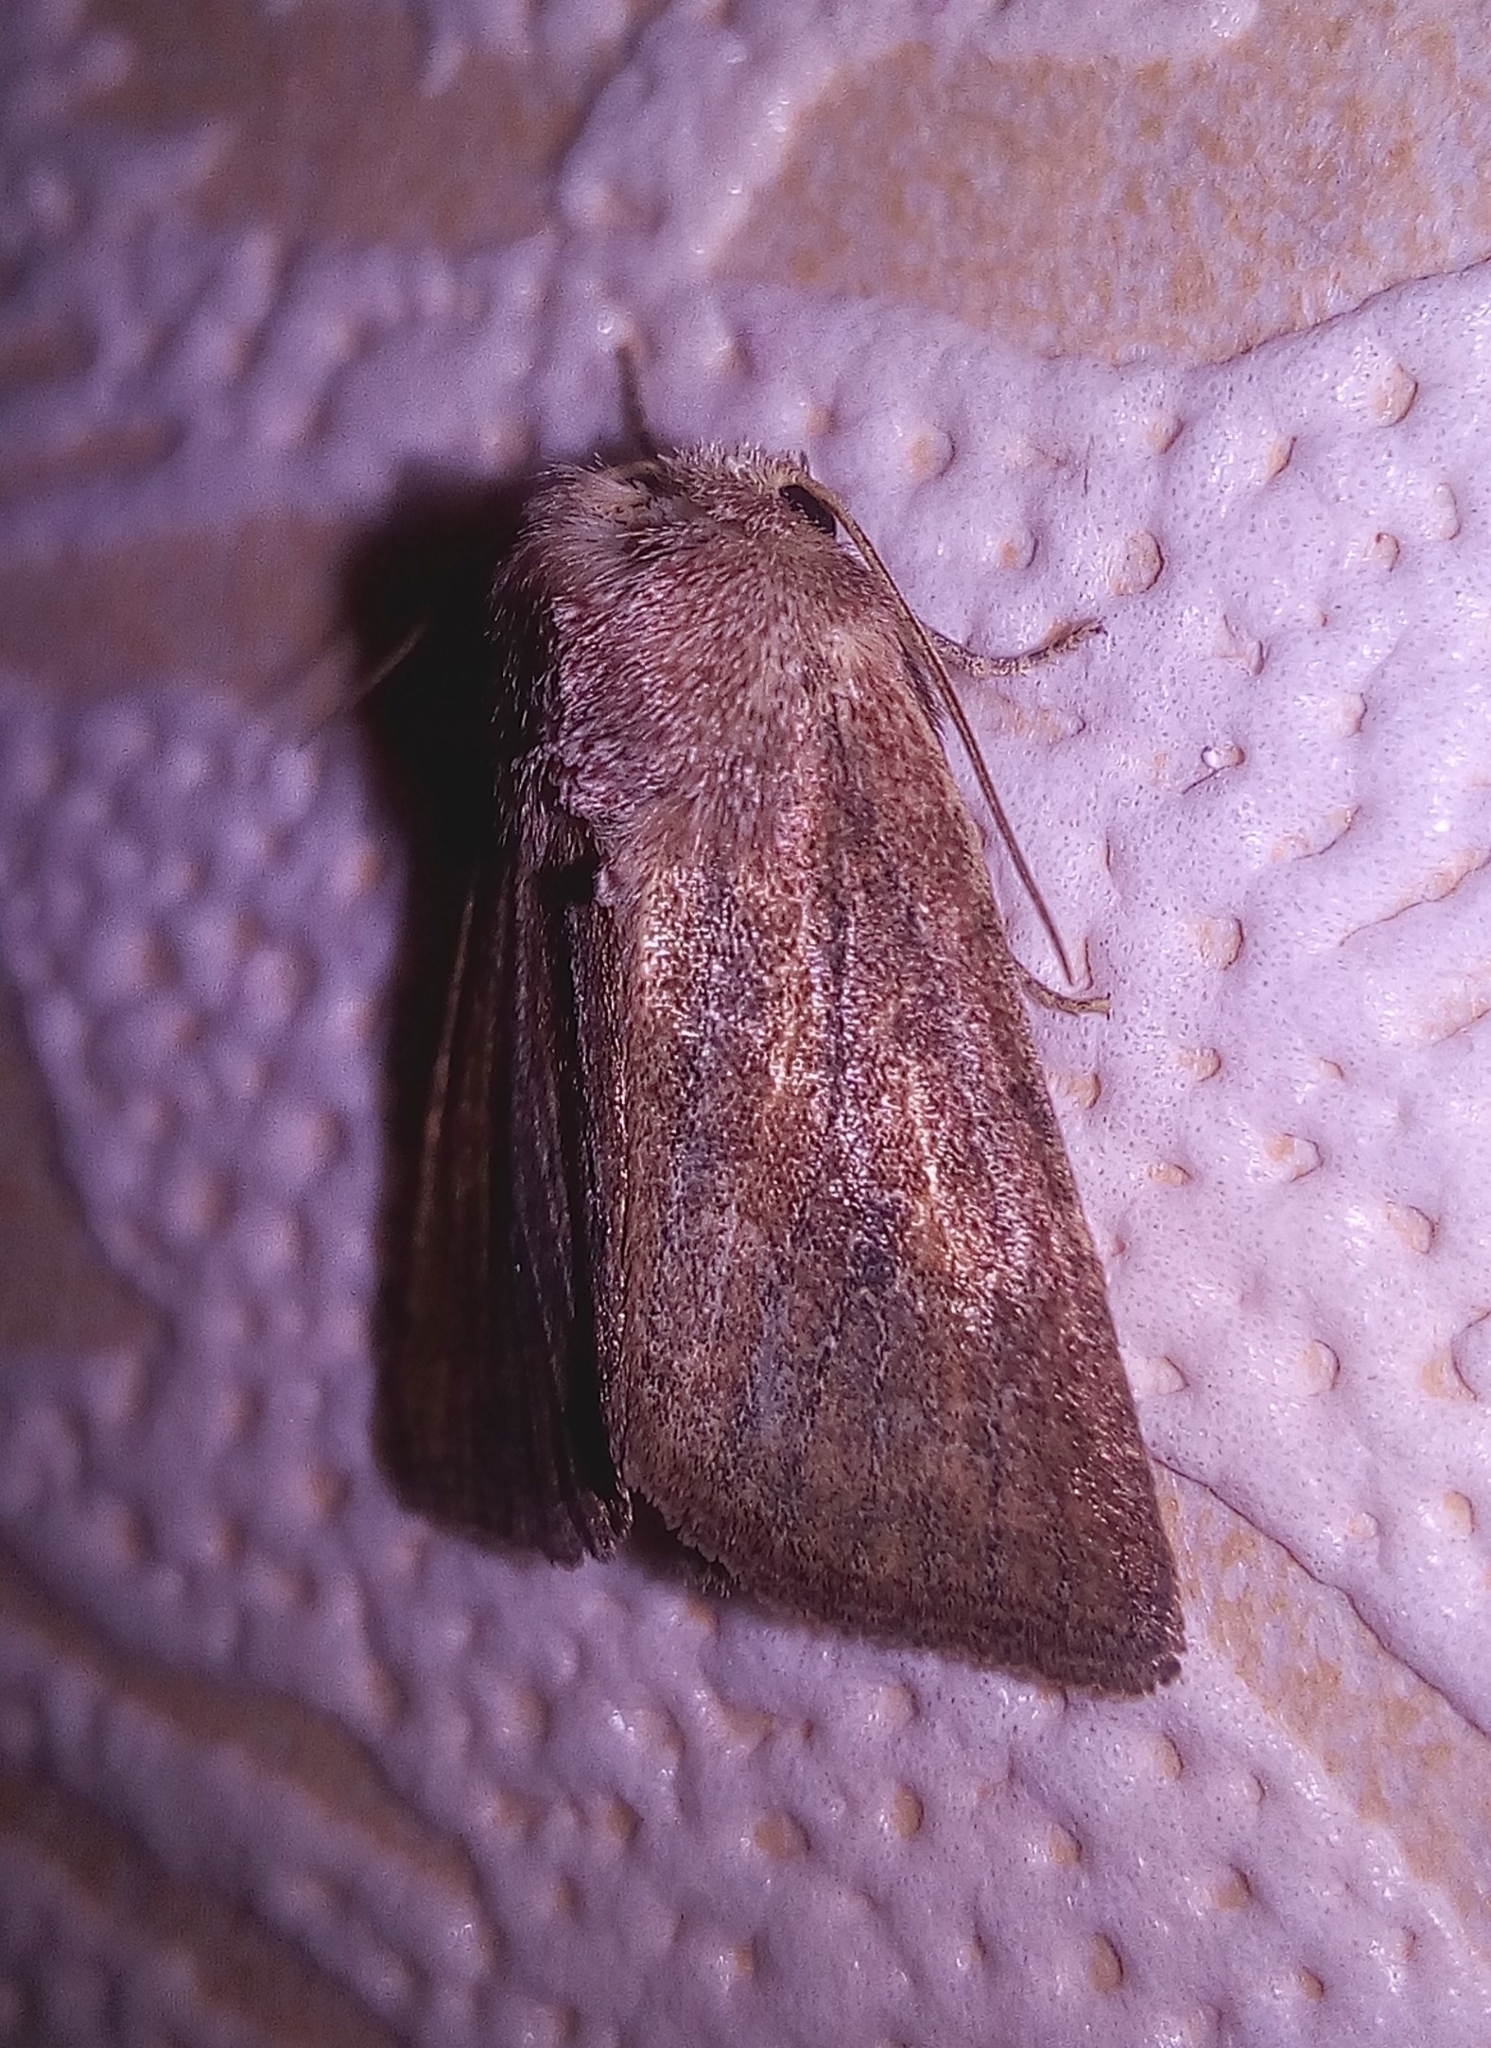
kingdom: Animalia
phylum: Arthropoda
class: Insecta
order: Lepidoptera
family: Noctuidae
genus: Photedes
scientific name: Photedes fluxa
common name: Mere wainscot
